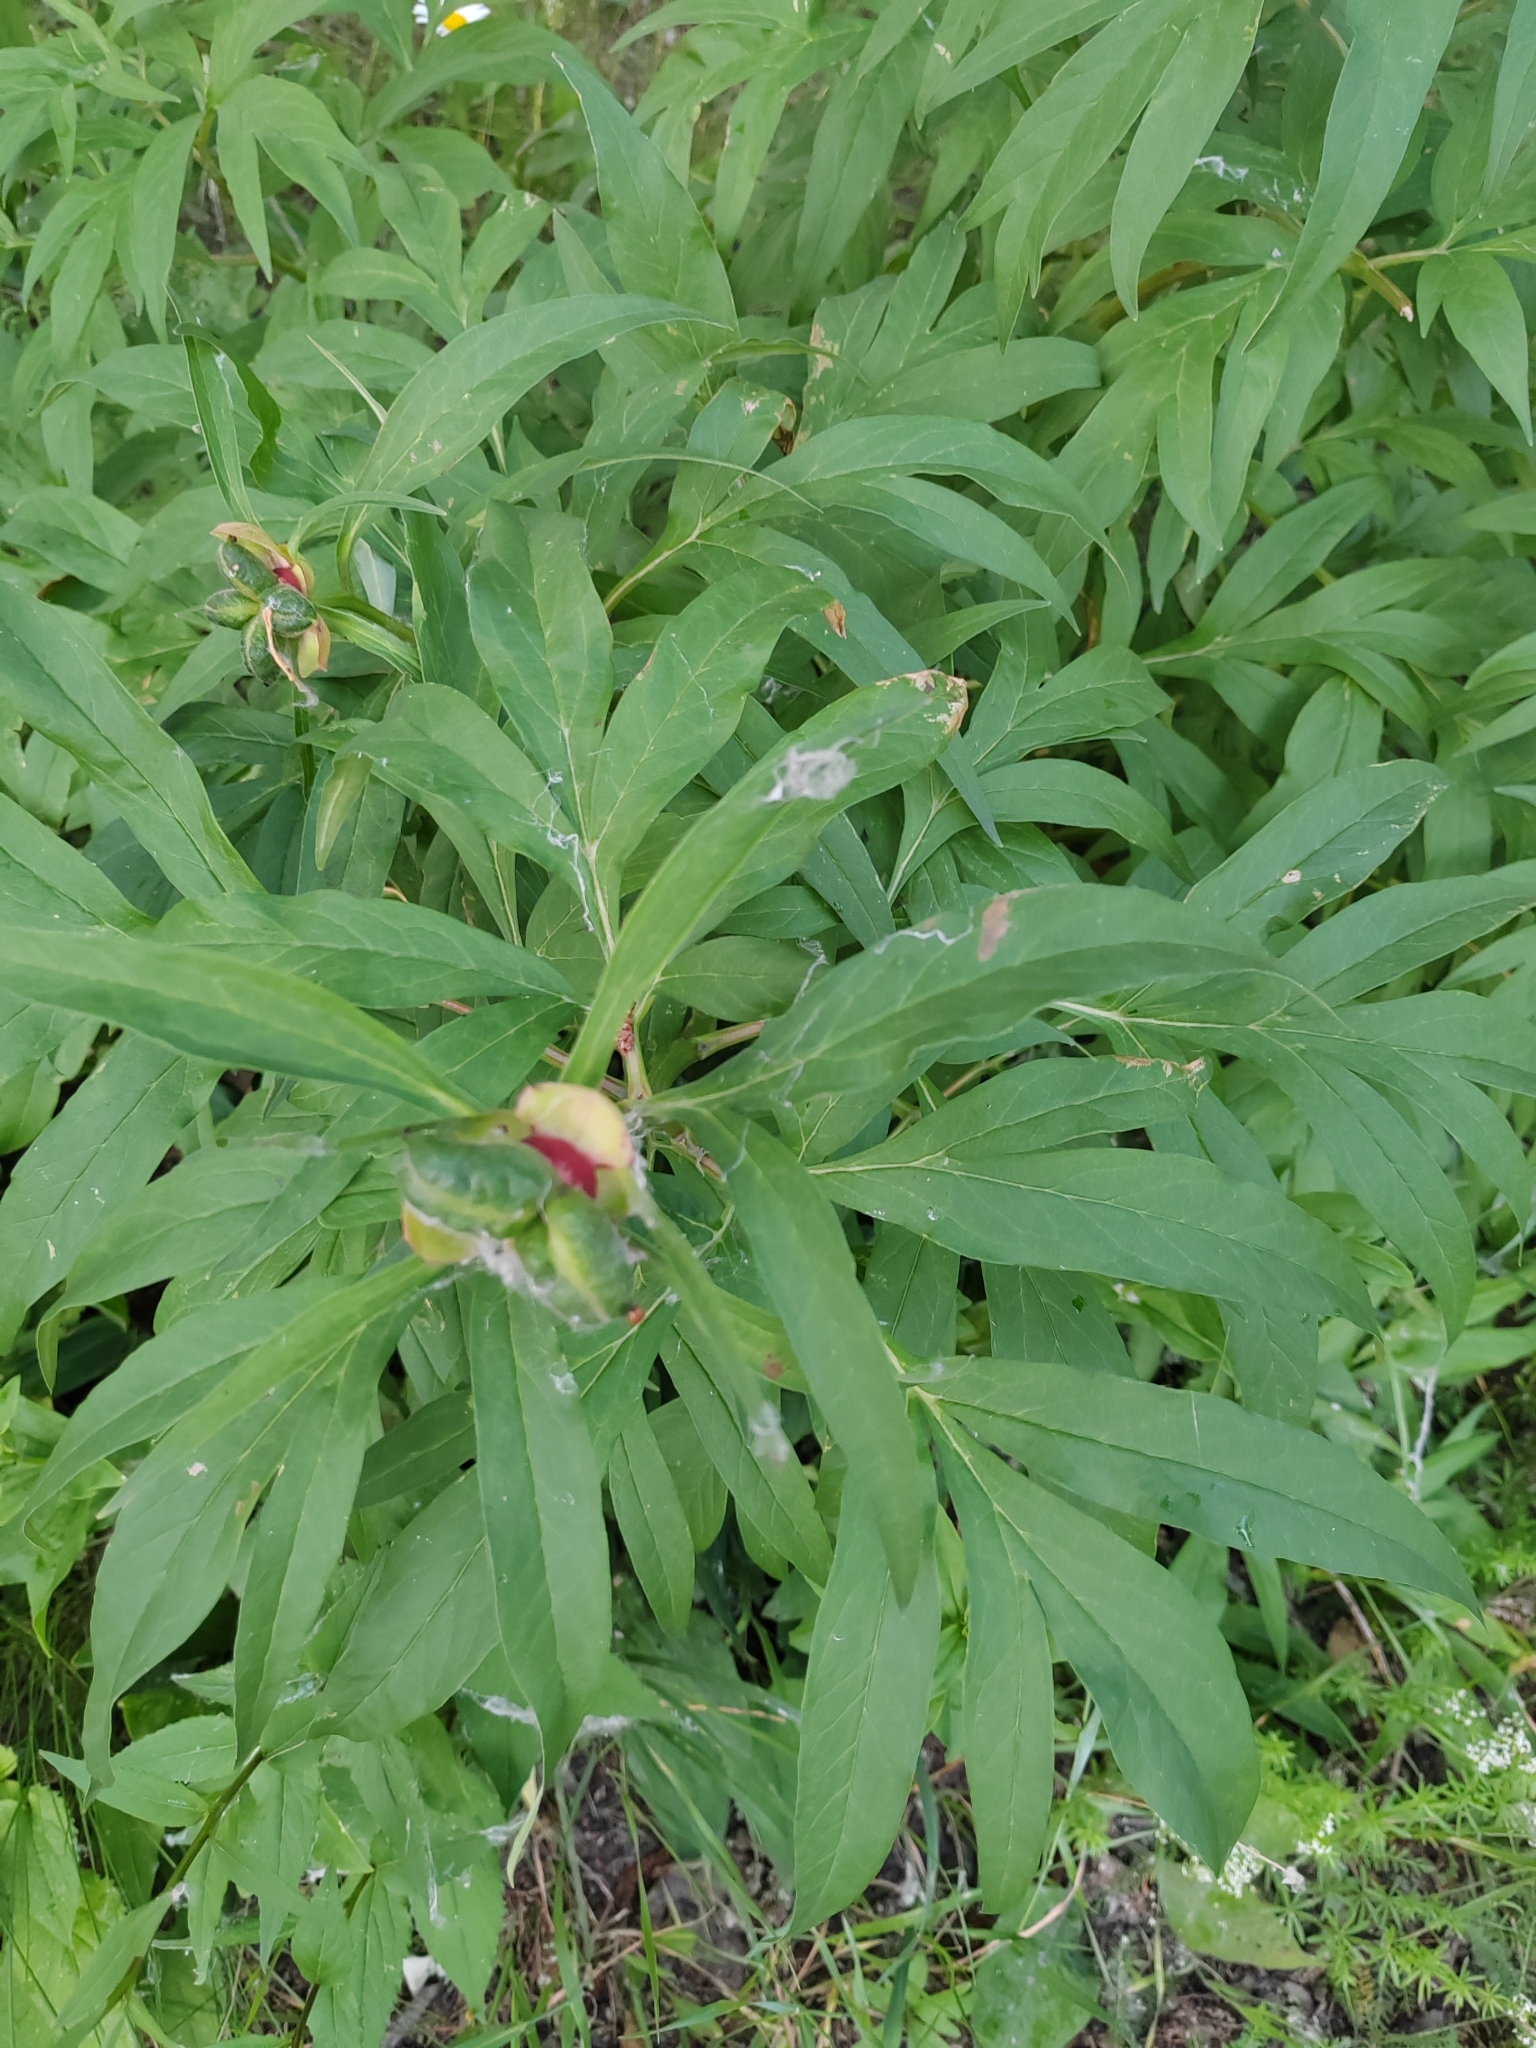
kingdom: Plantae
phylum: Tracheophyta
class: Magnoliopsida
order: Saxifragales
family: Paeoniaceae
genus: Paeonia
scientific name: Paeonia anomala
